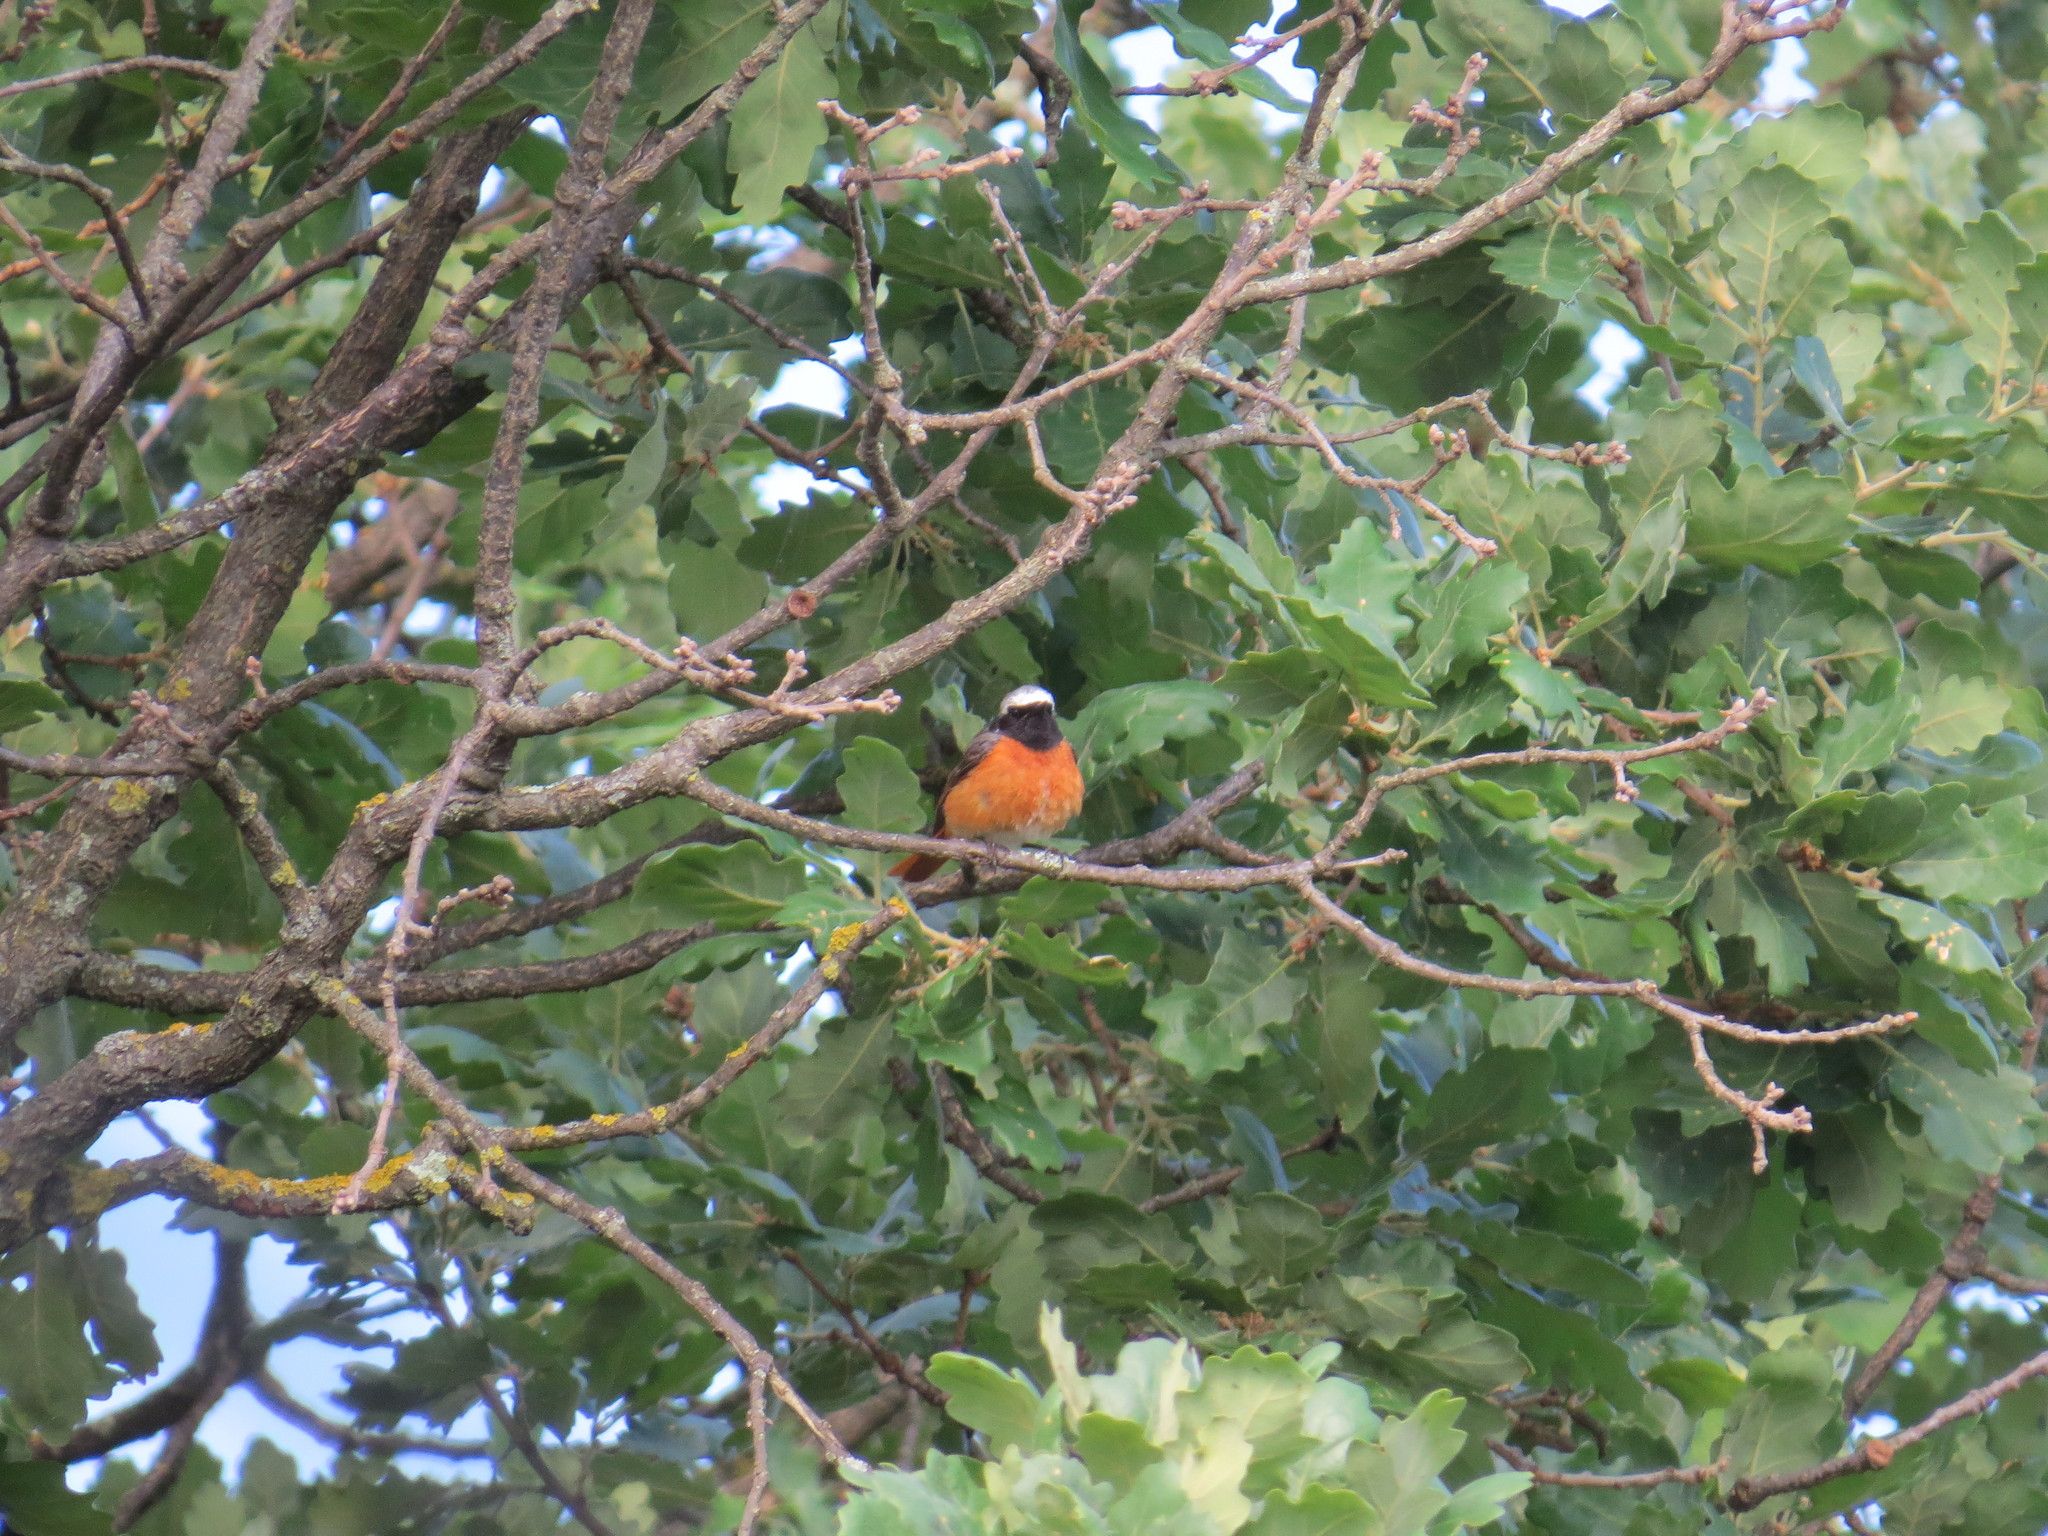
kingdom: Animalia
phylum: Chordata
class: Aves
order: Passeriformes
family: Muscicapidae
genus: Phoenicurus
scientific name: Phoenicurus phoenicurus
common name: Common redstart
